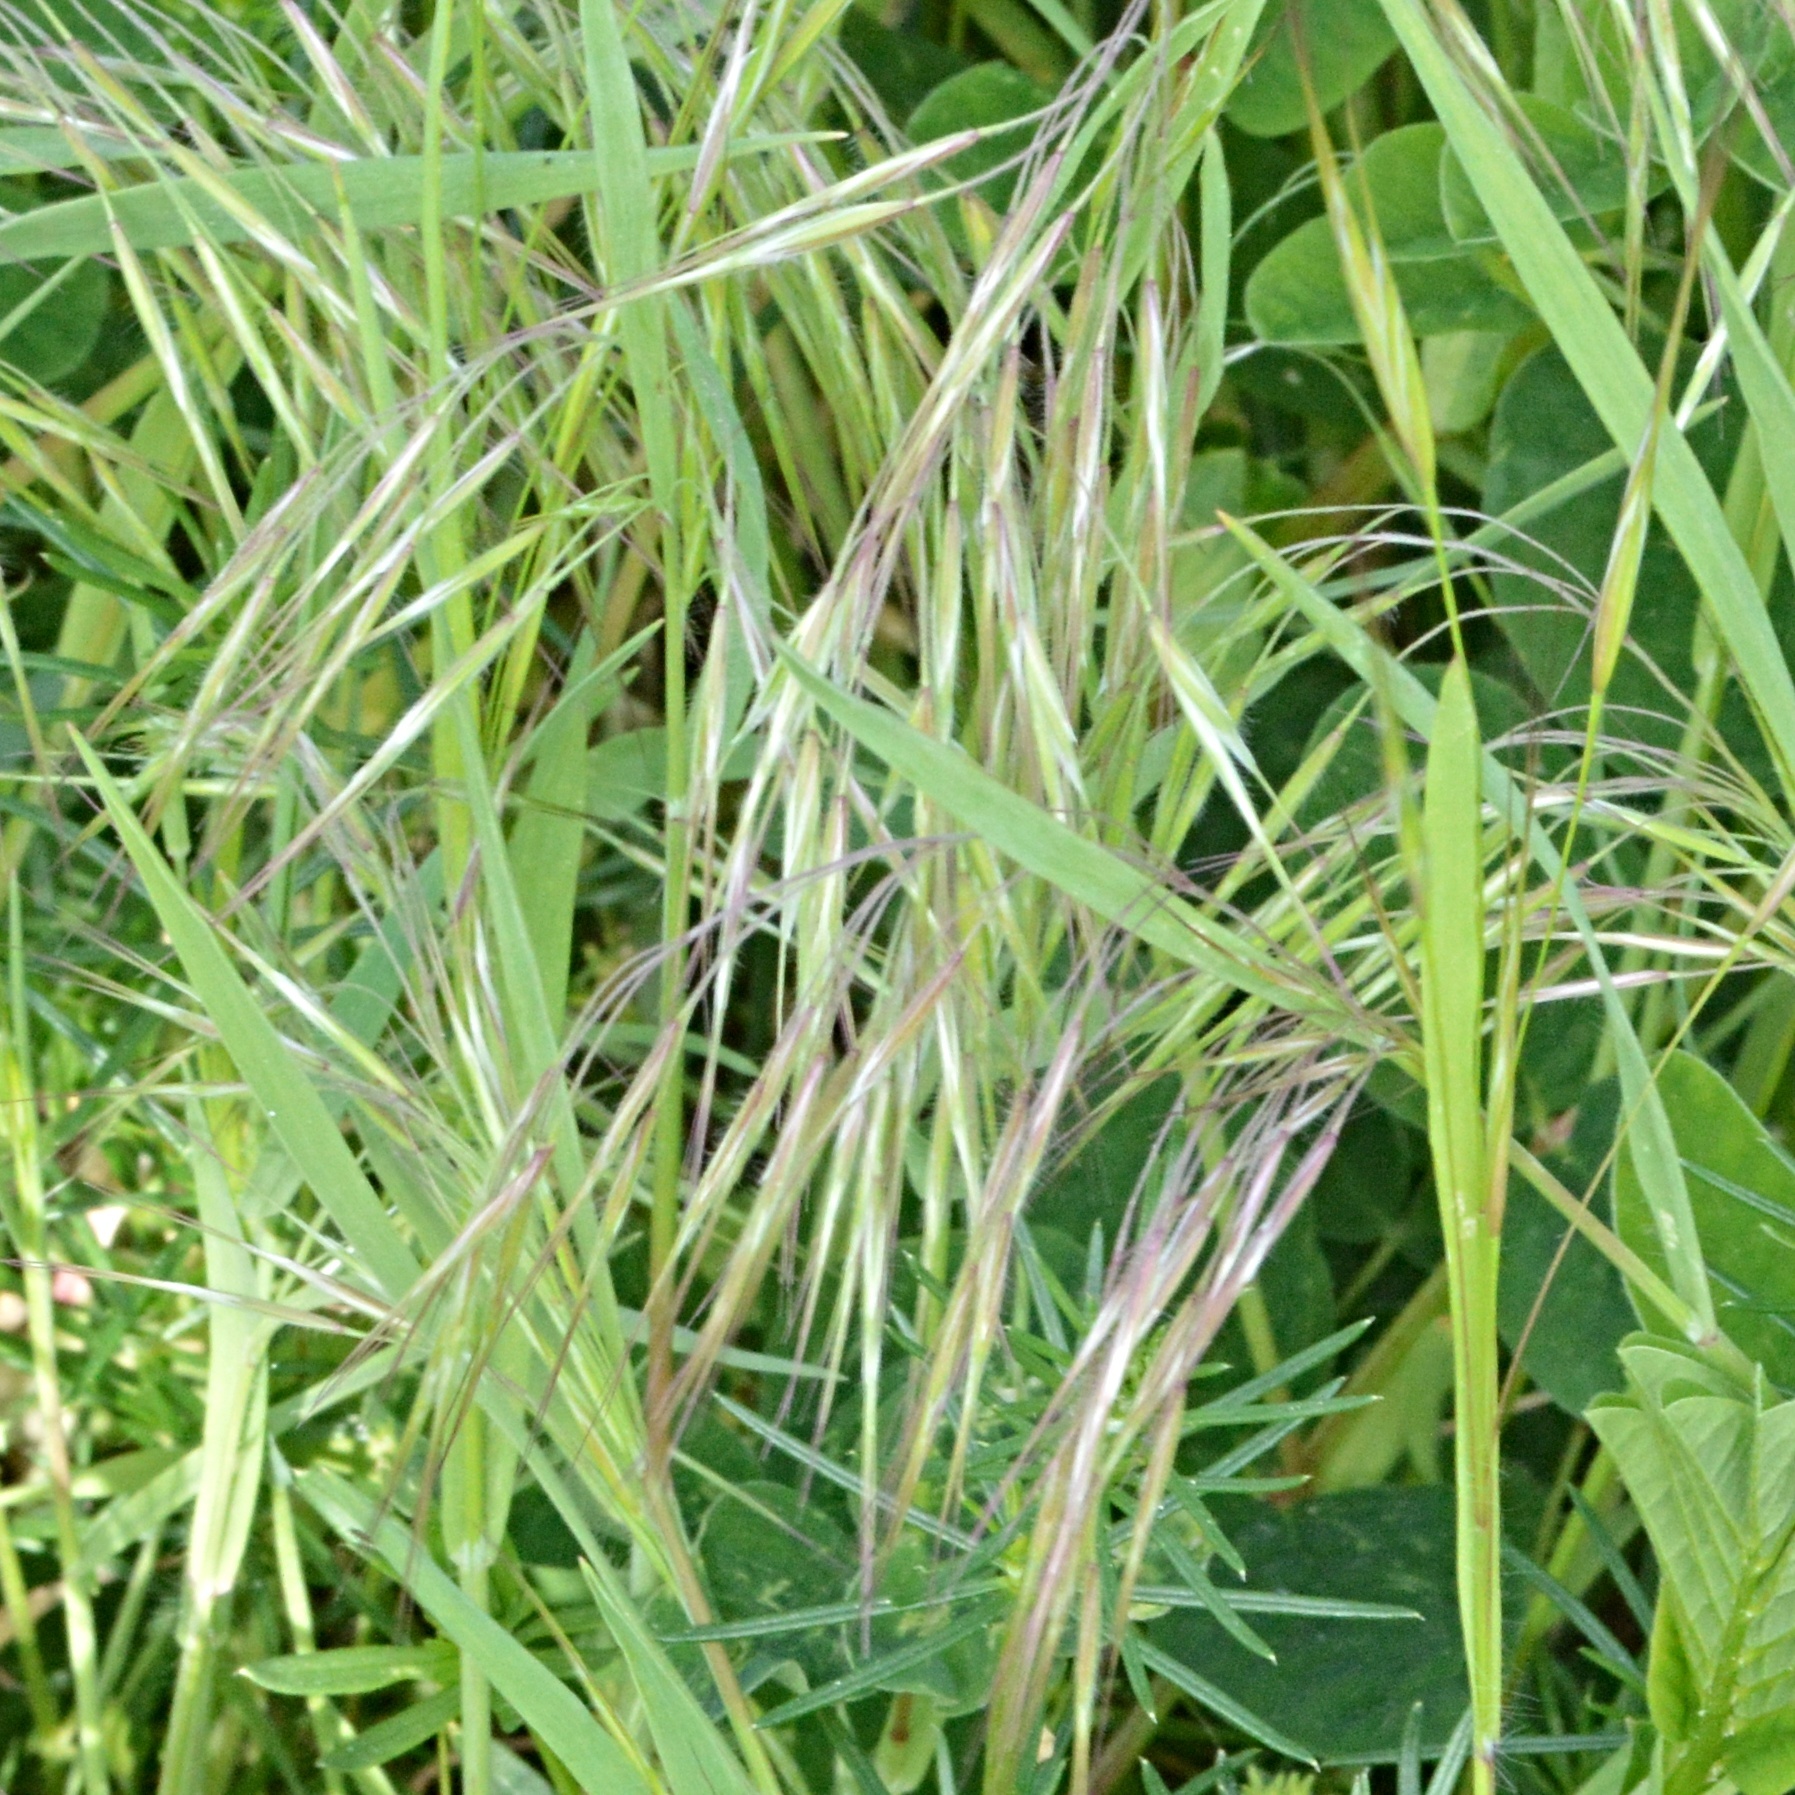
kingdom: Plantae
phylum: Tracheophyta
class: Liliopsida
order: Poales
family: Poaceae
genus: Bromus
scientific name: Bromus tectorum
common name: Cheatgrass
